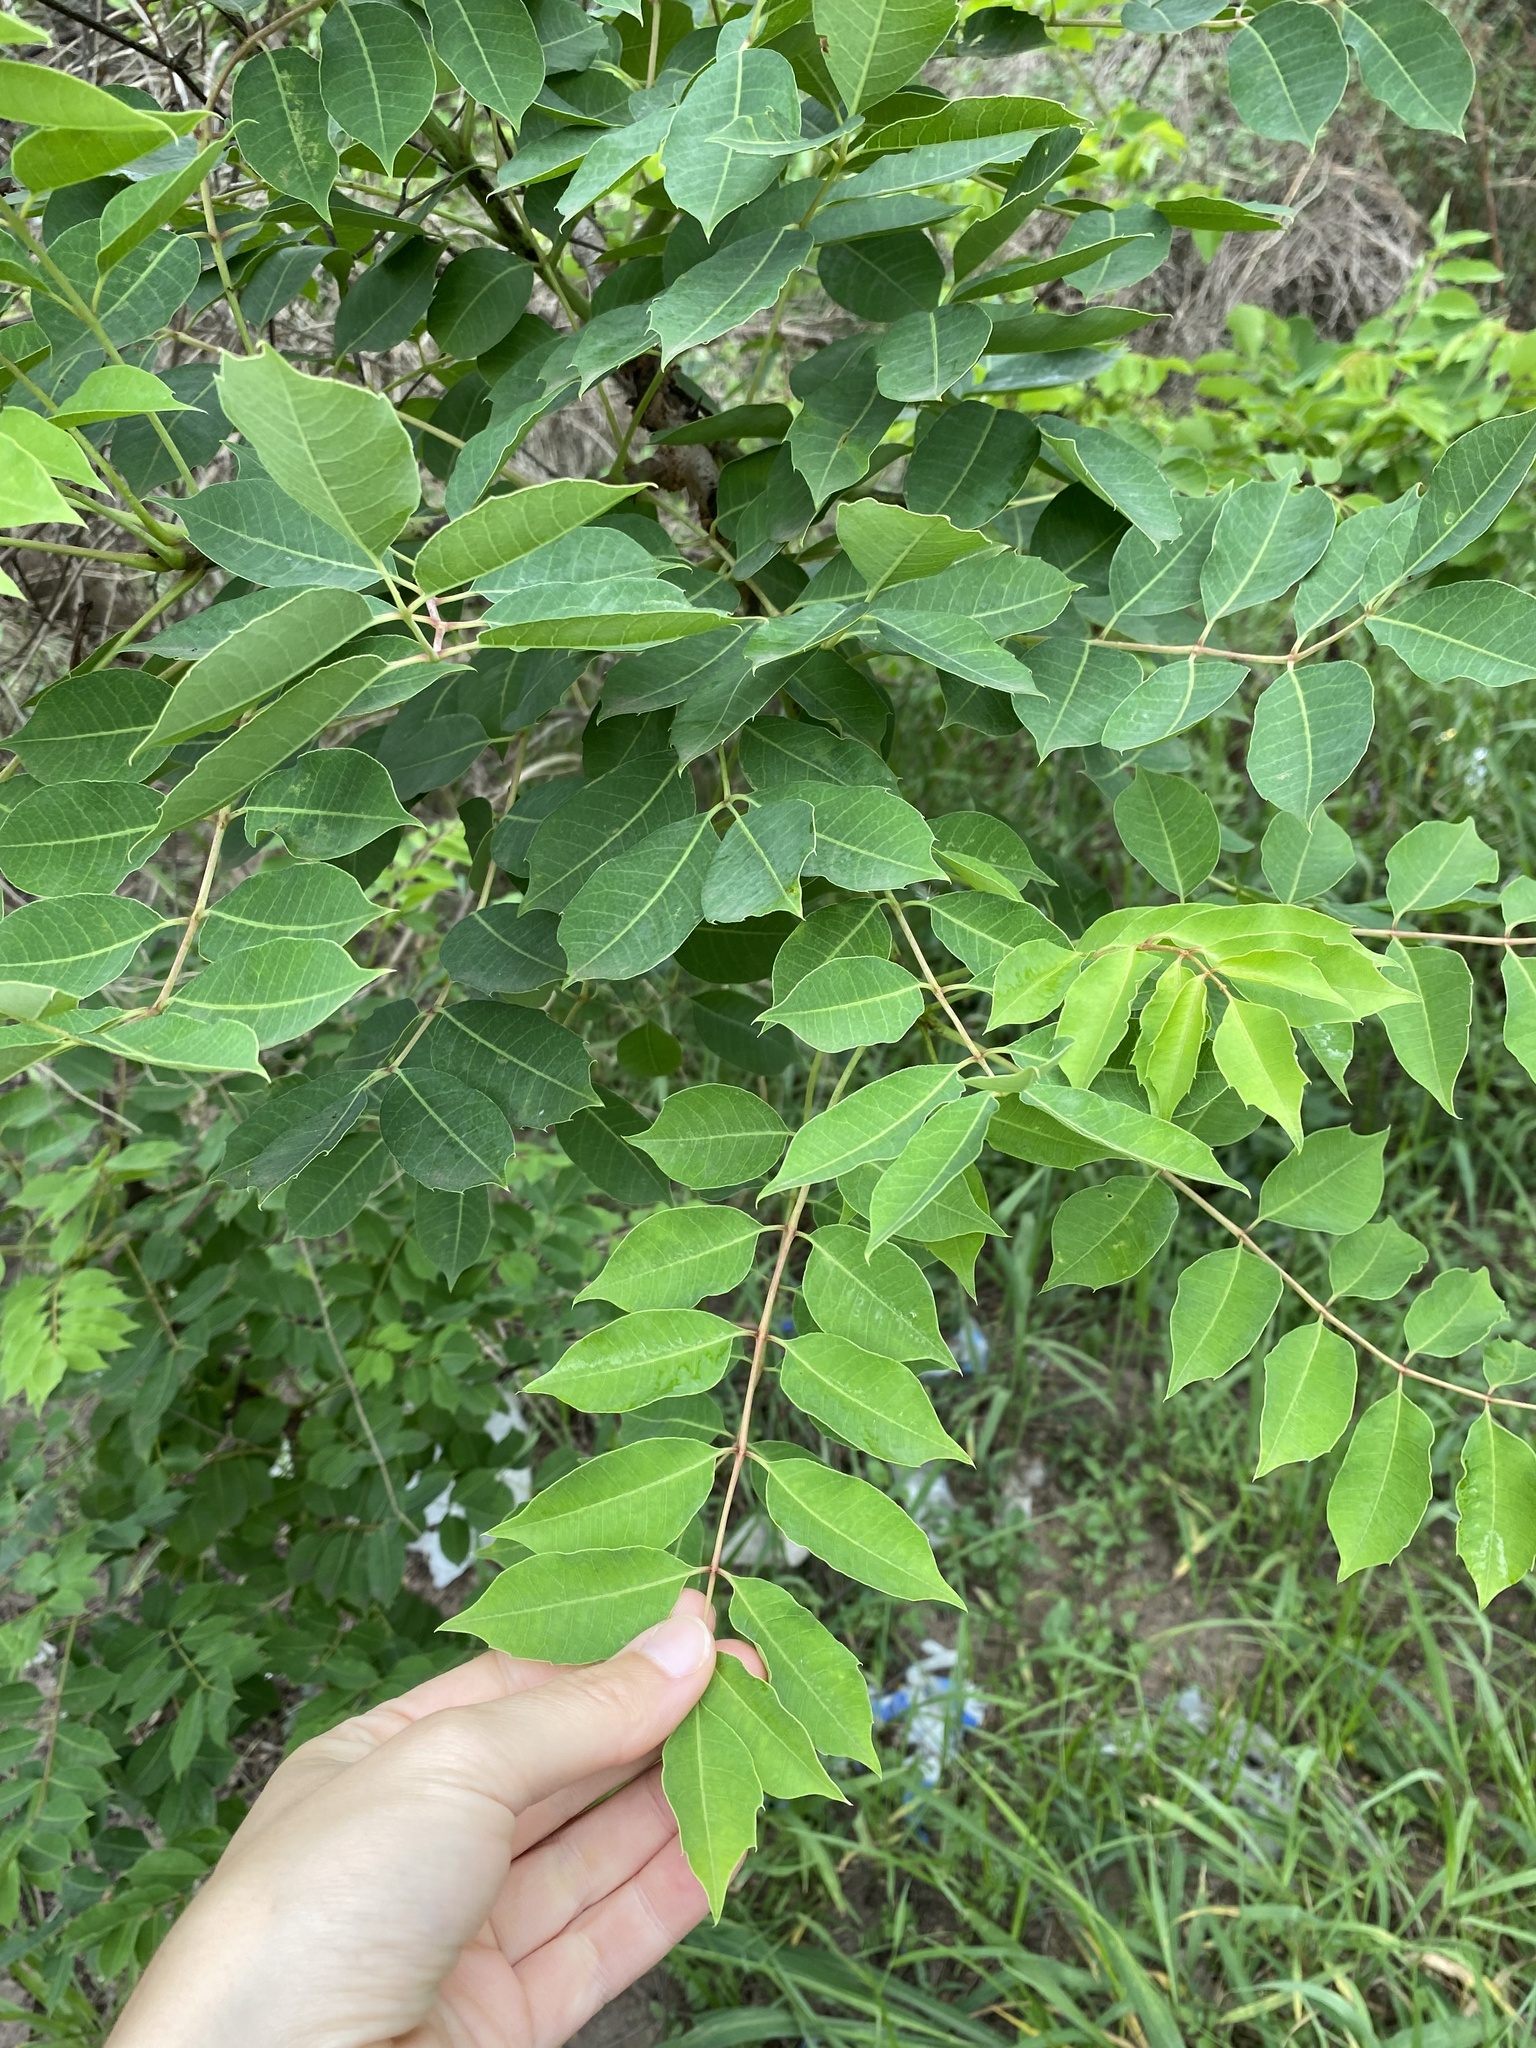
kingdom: Plantae
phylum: Tracheophyta
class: Magnoliopsida
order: Sapindales
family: Anacardiaceae
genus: Sclerocarya
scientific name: Sclerocarya birrea
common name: Marula
